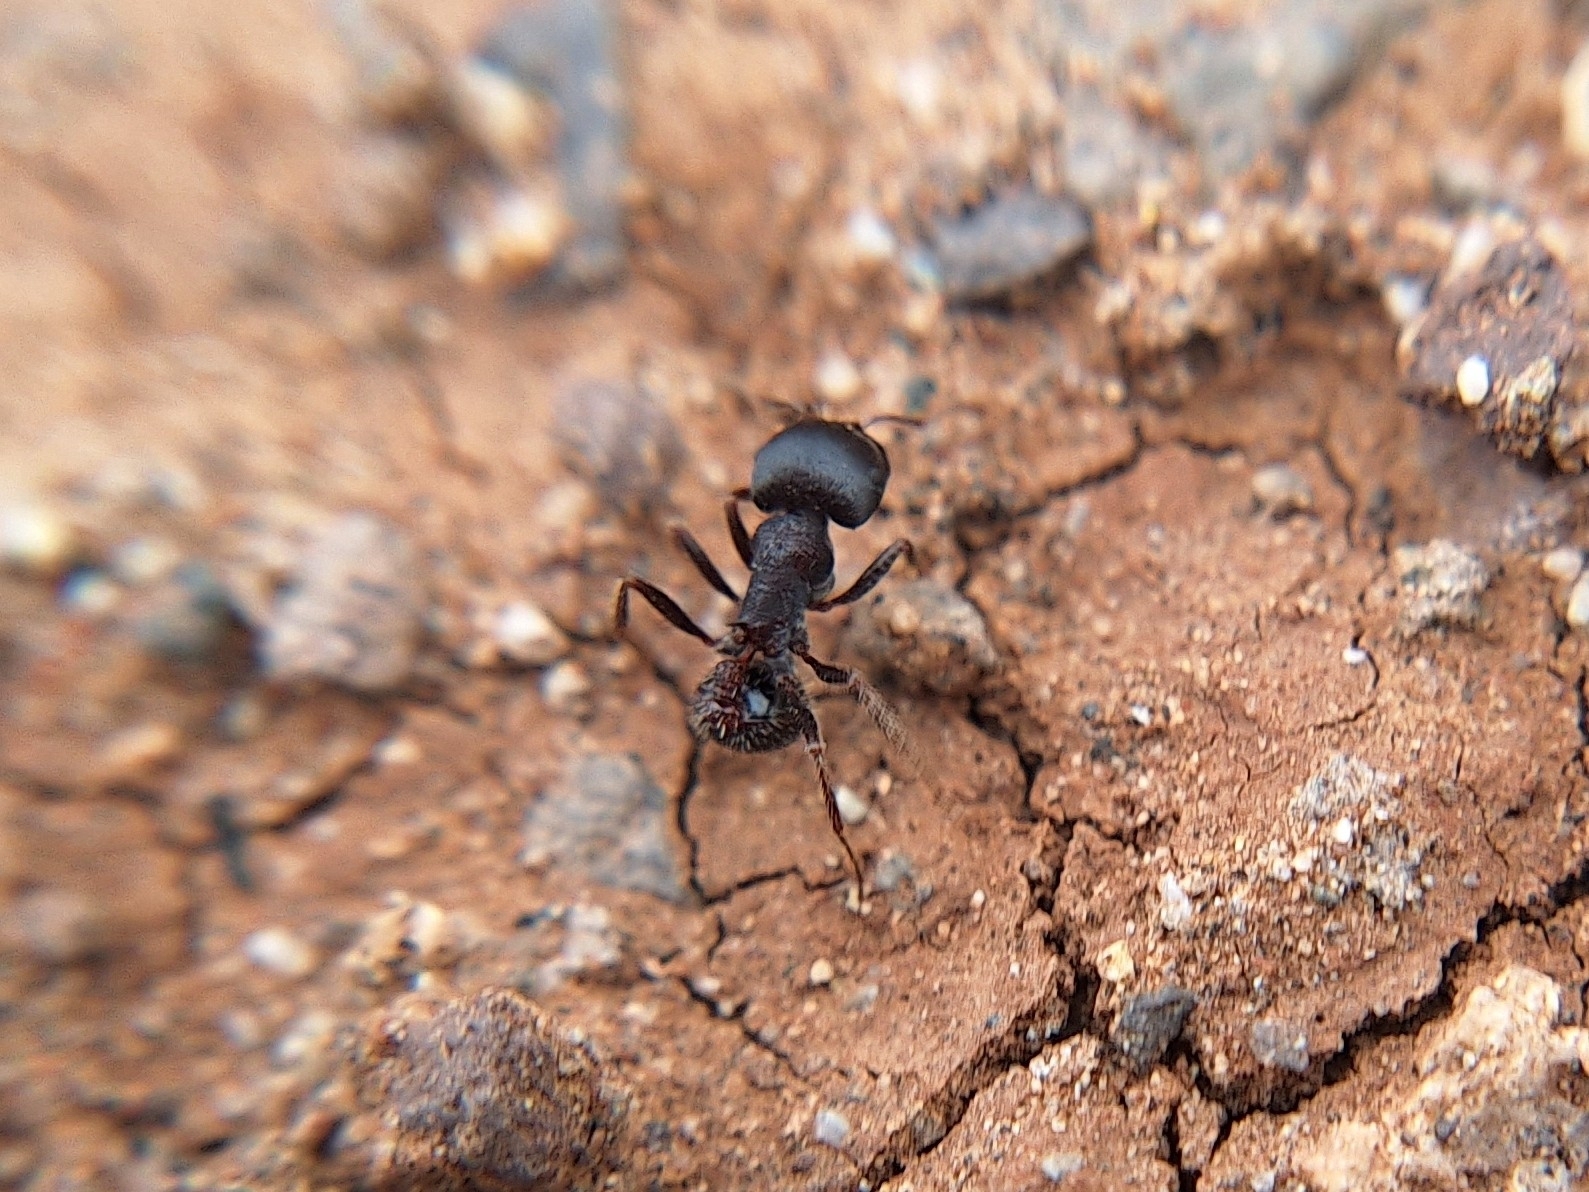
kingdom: Animalia
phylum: Arthropoda
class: Insecta
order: Hymenoptera
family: Formicidae
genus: Pogonomyrmex
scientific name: Pogonomyrmex rugosus
